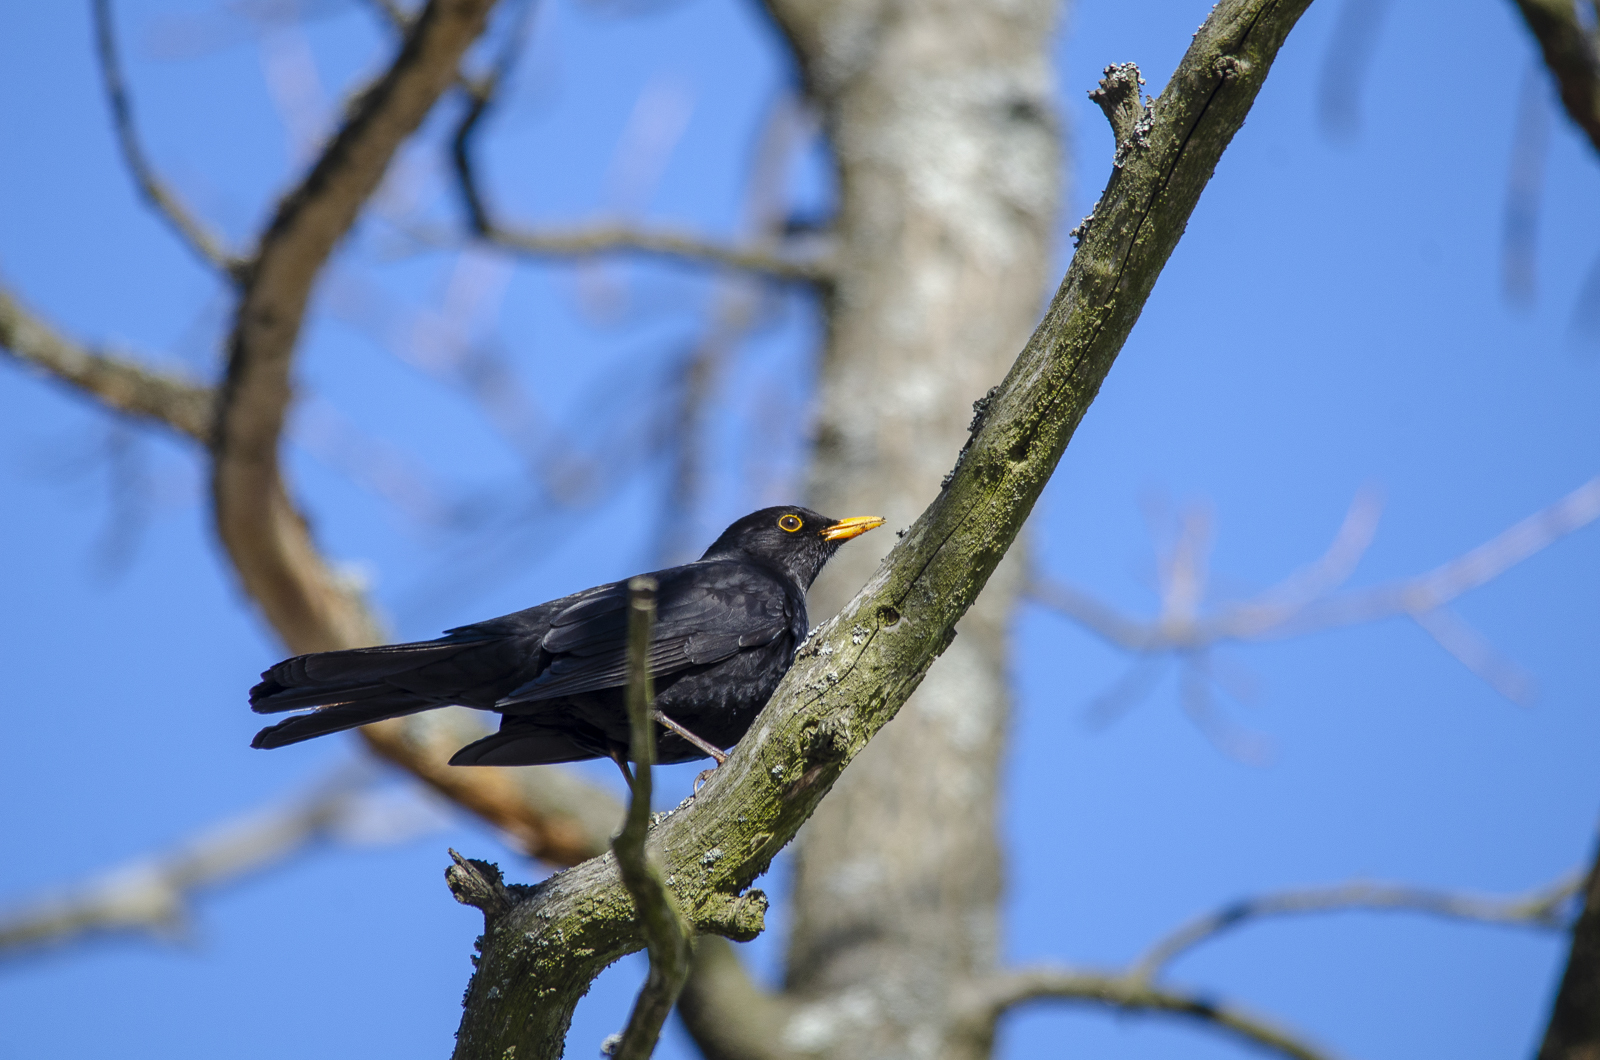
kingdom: Animalia
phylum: Chordata
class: Aves
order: Passeriformes
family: Turdidae
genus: Turdus
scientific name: Turdus merula
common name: Common blackbird
